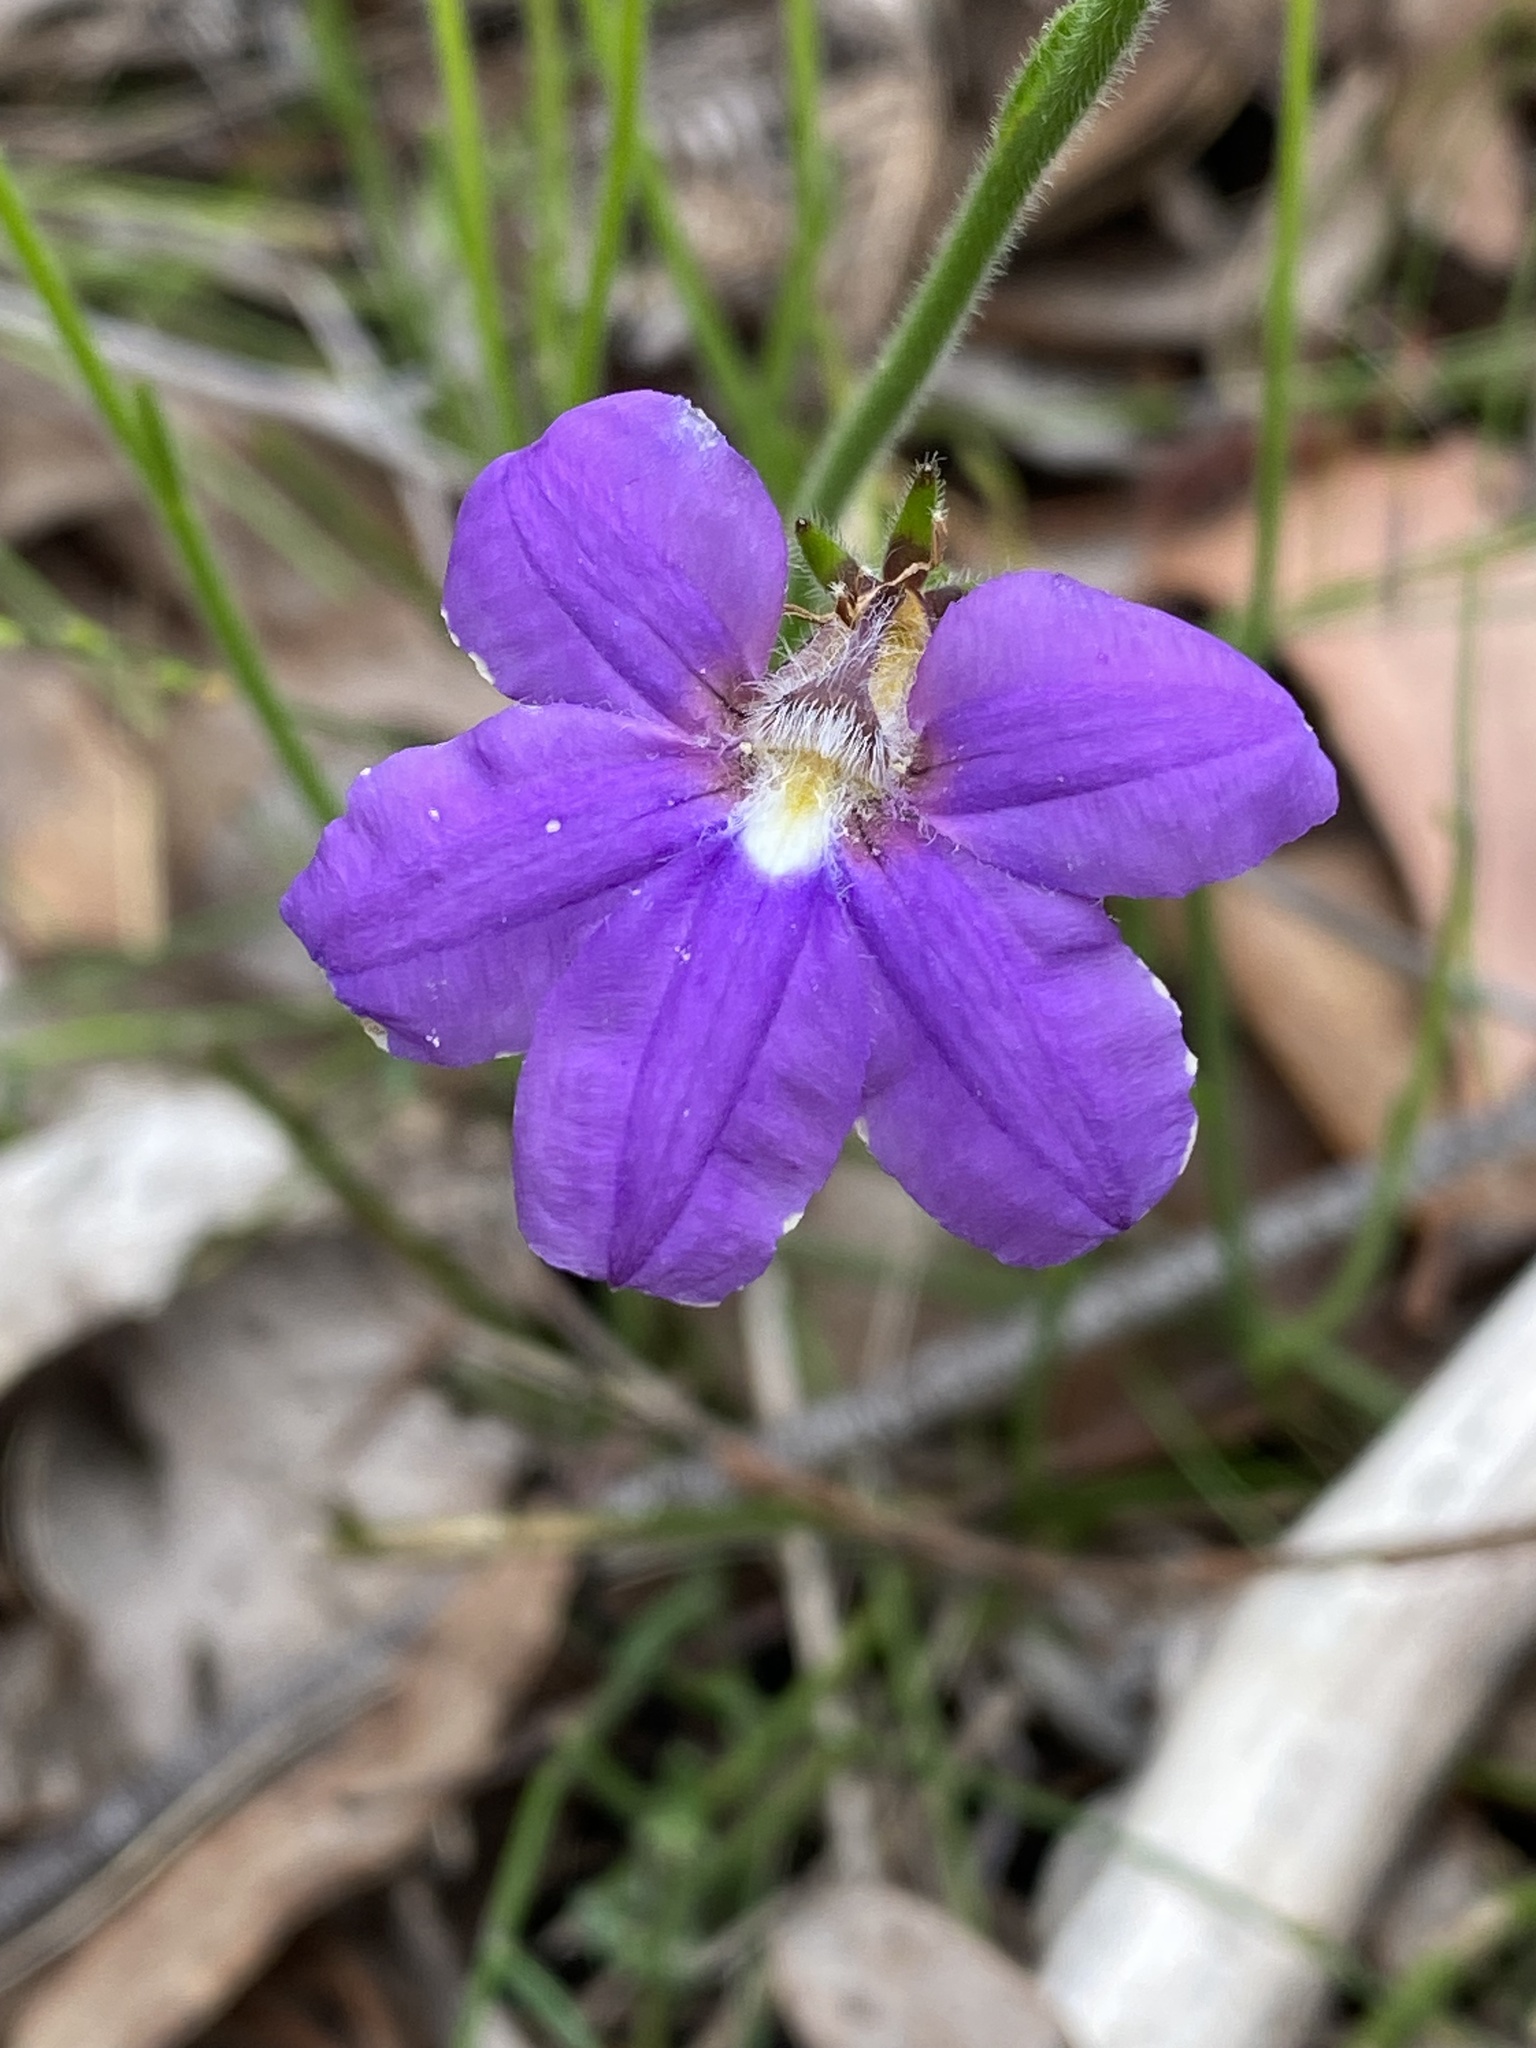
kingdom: Plantae
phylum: Tracheophyta
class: Magnoliopsida
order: Asterales
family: Goodeniaceae
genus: Scaevola
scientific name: Scaevola ramosissima
